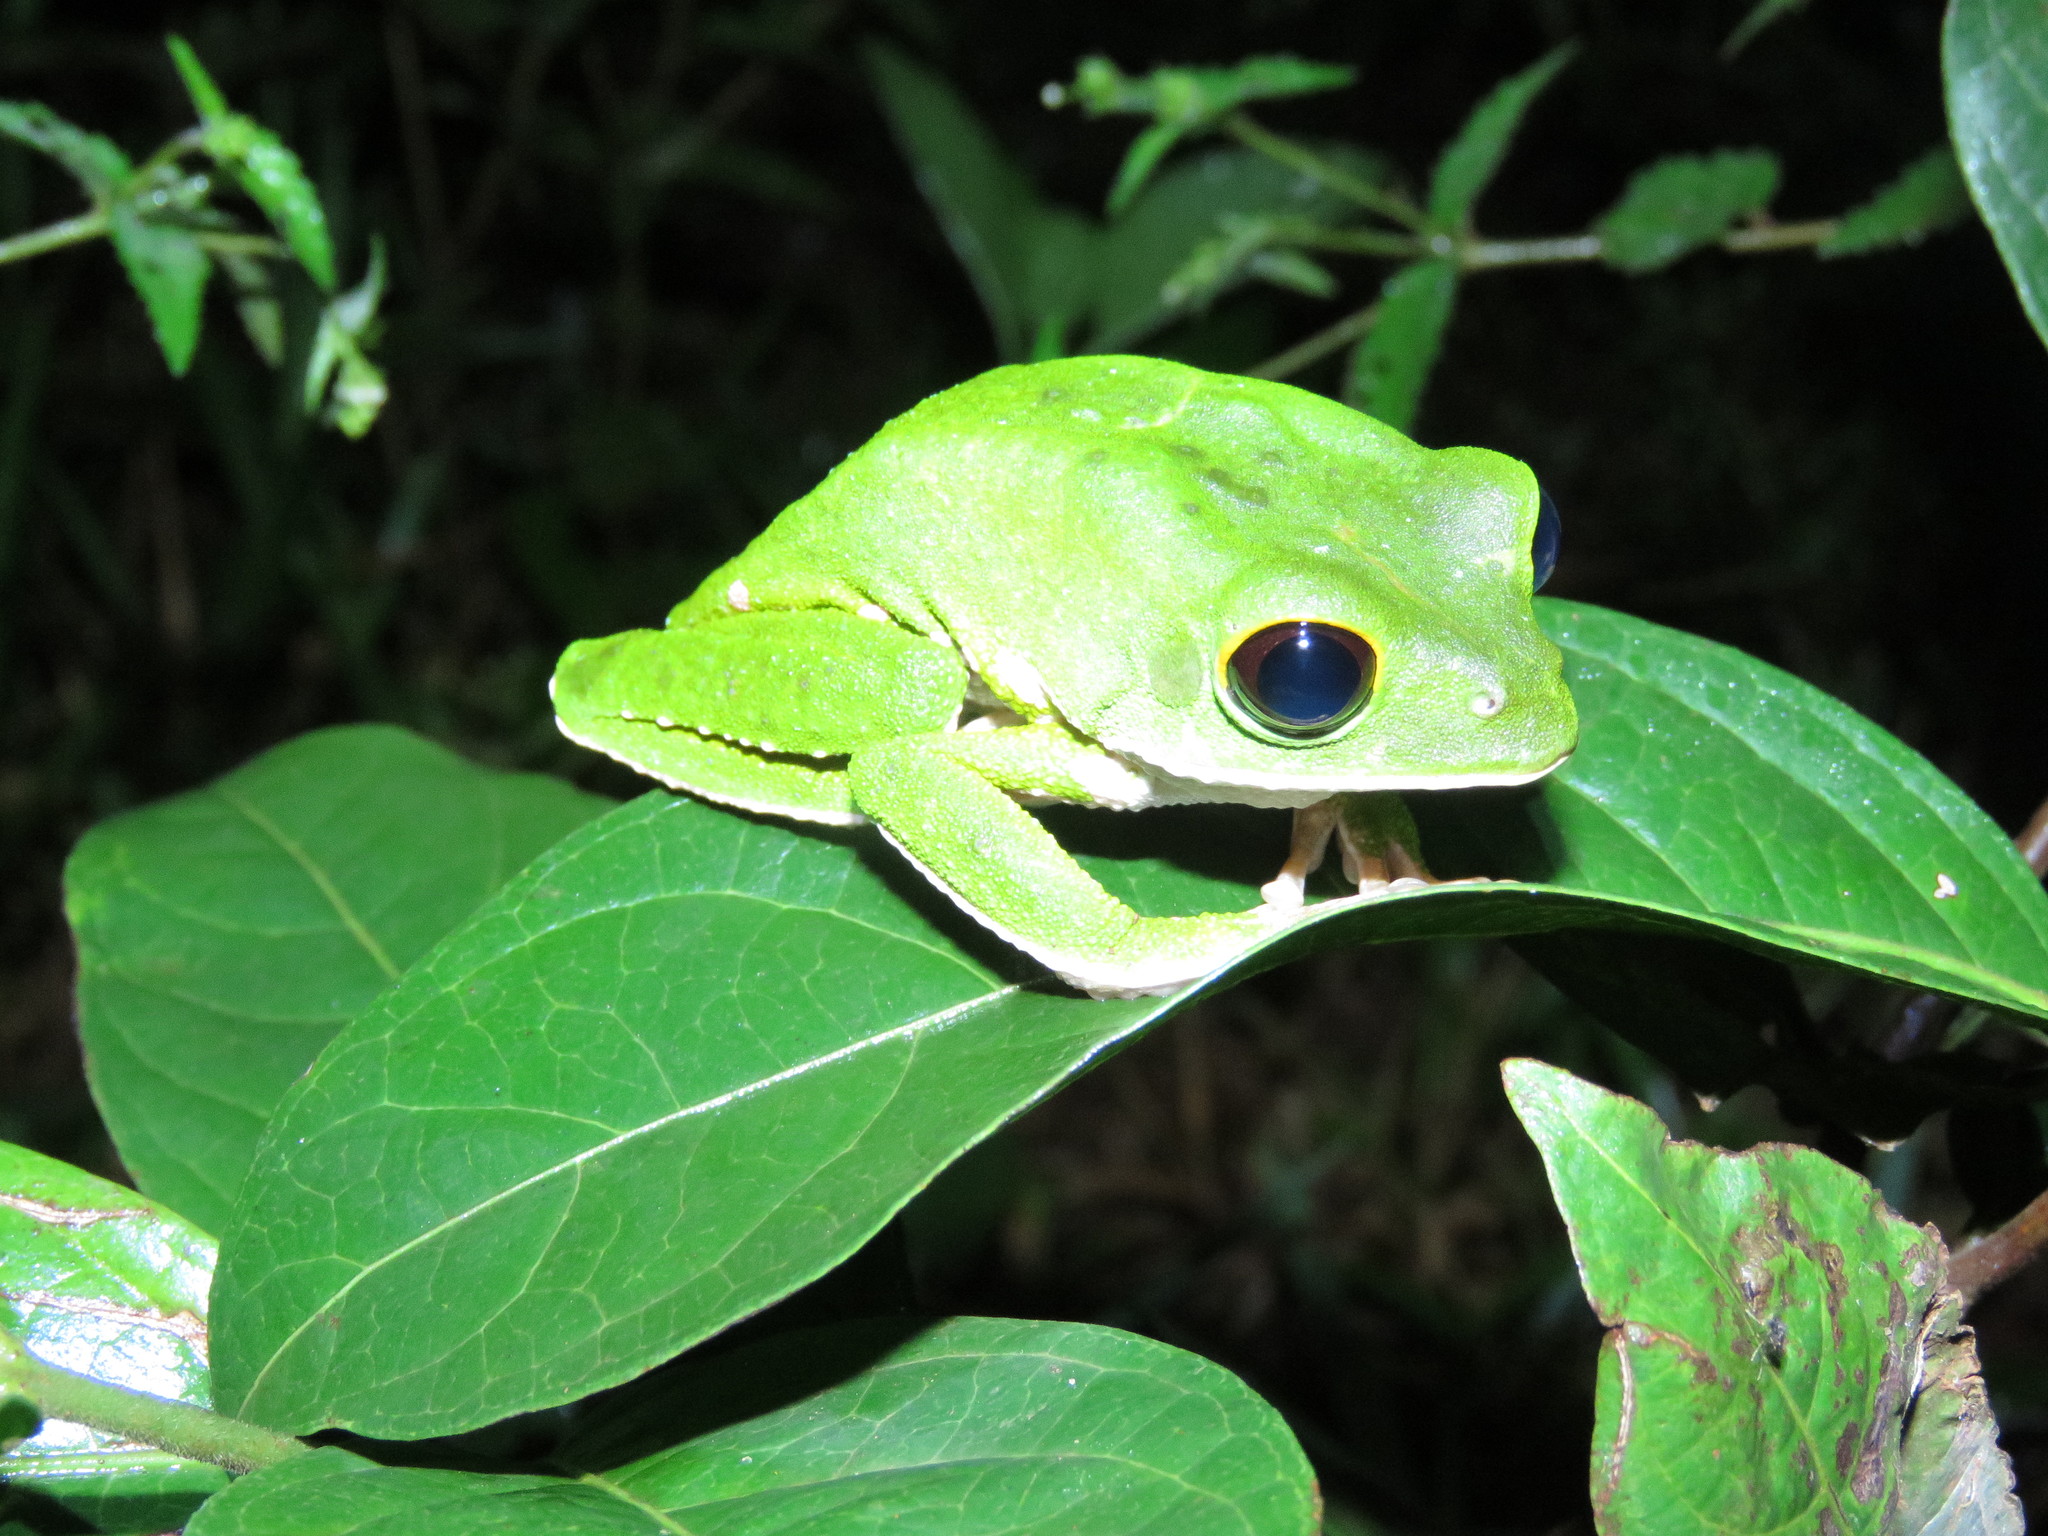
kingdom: Animalia
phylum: Chordata
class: Amphibia
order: Anura
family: Phyllomedusidae
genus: Phyllomedusa
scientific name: Phyllomedusa camba
